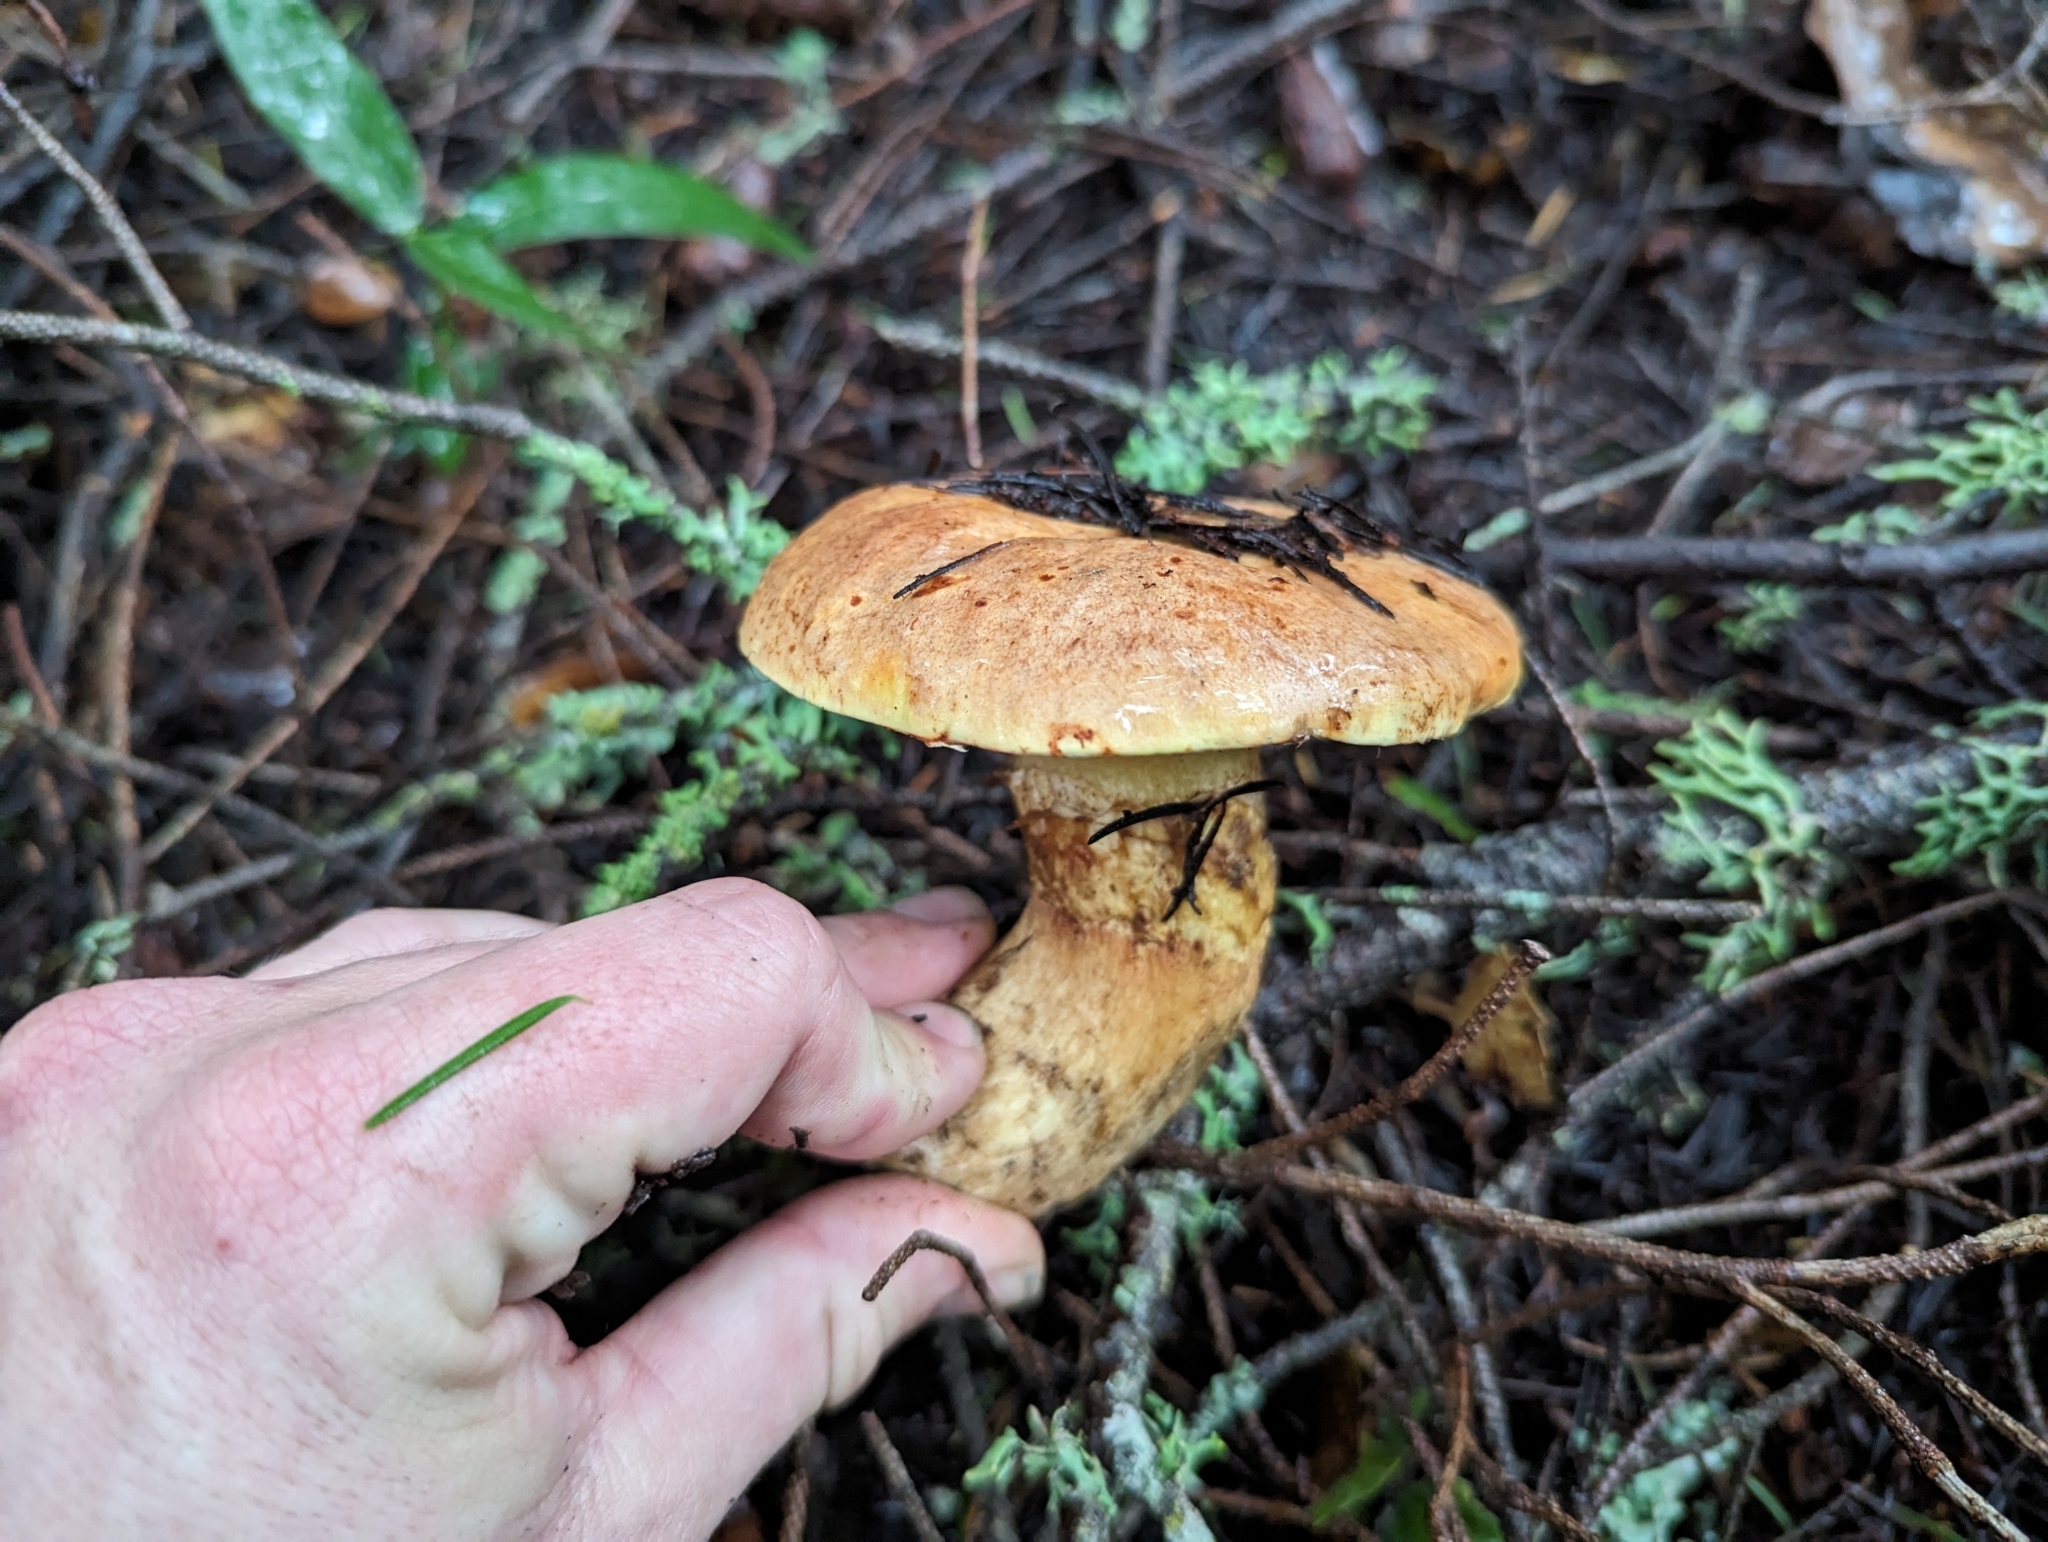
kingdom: Fungi
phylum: Basidiomycota
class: Agaricomycetes
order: Boletales
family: Suillaceae
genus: Suillus
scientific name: Suillus caerulescens
